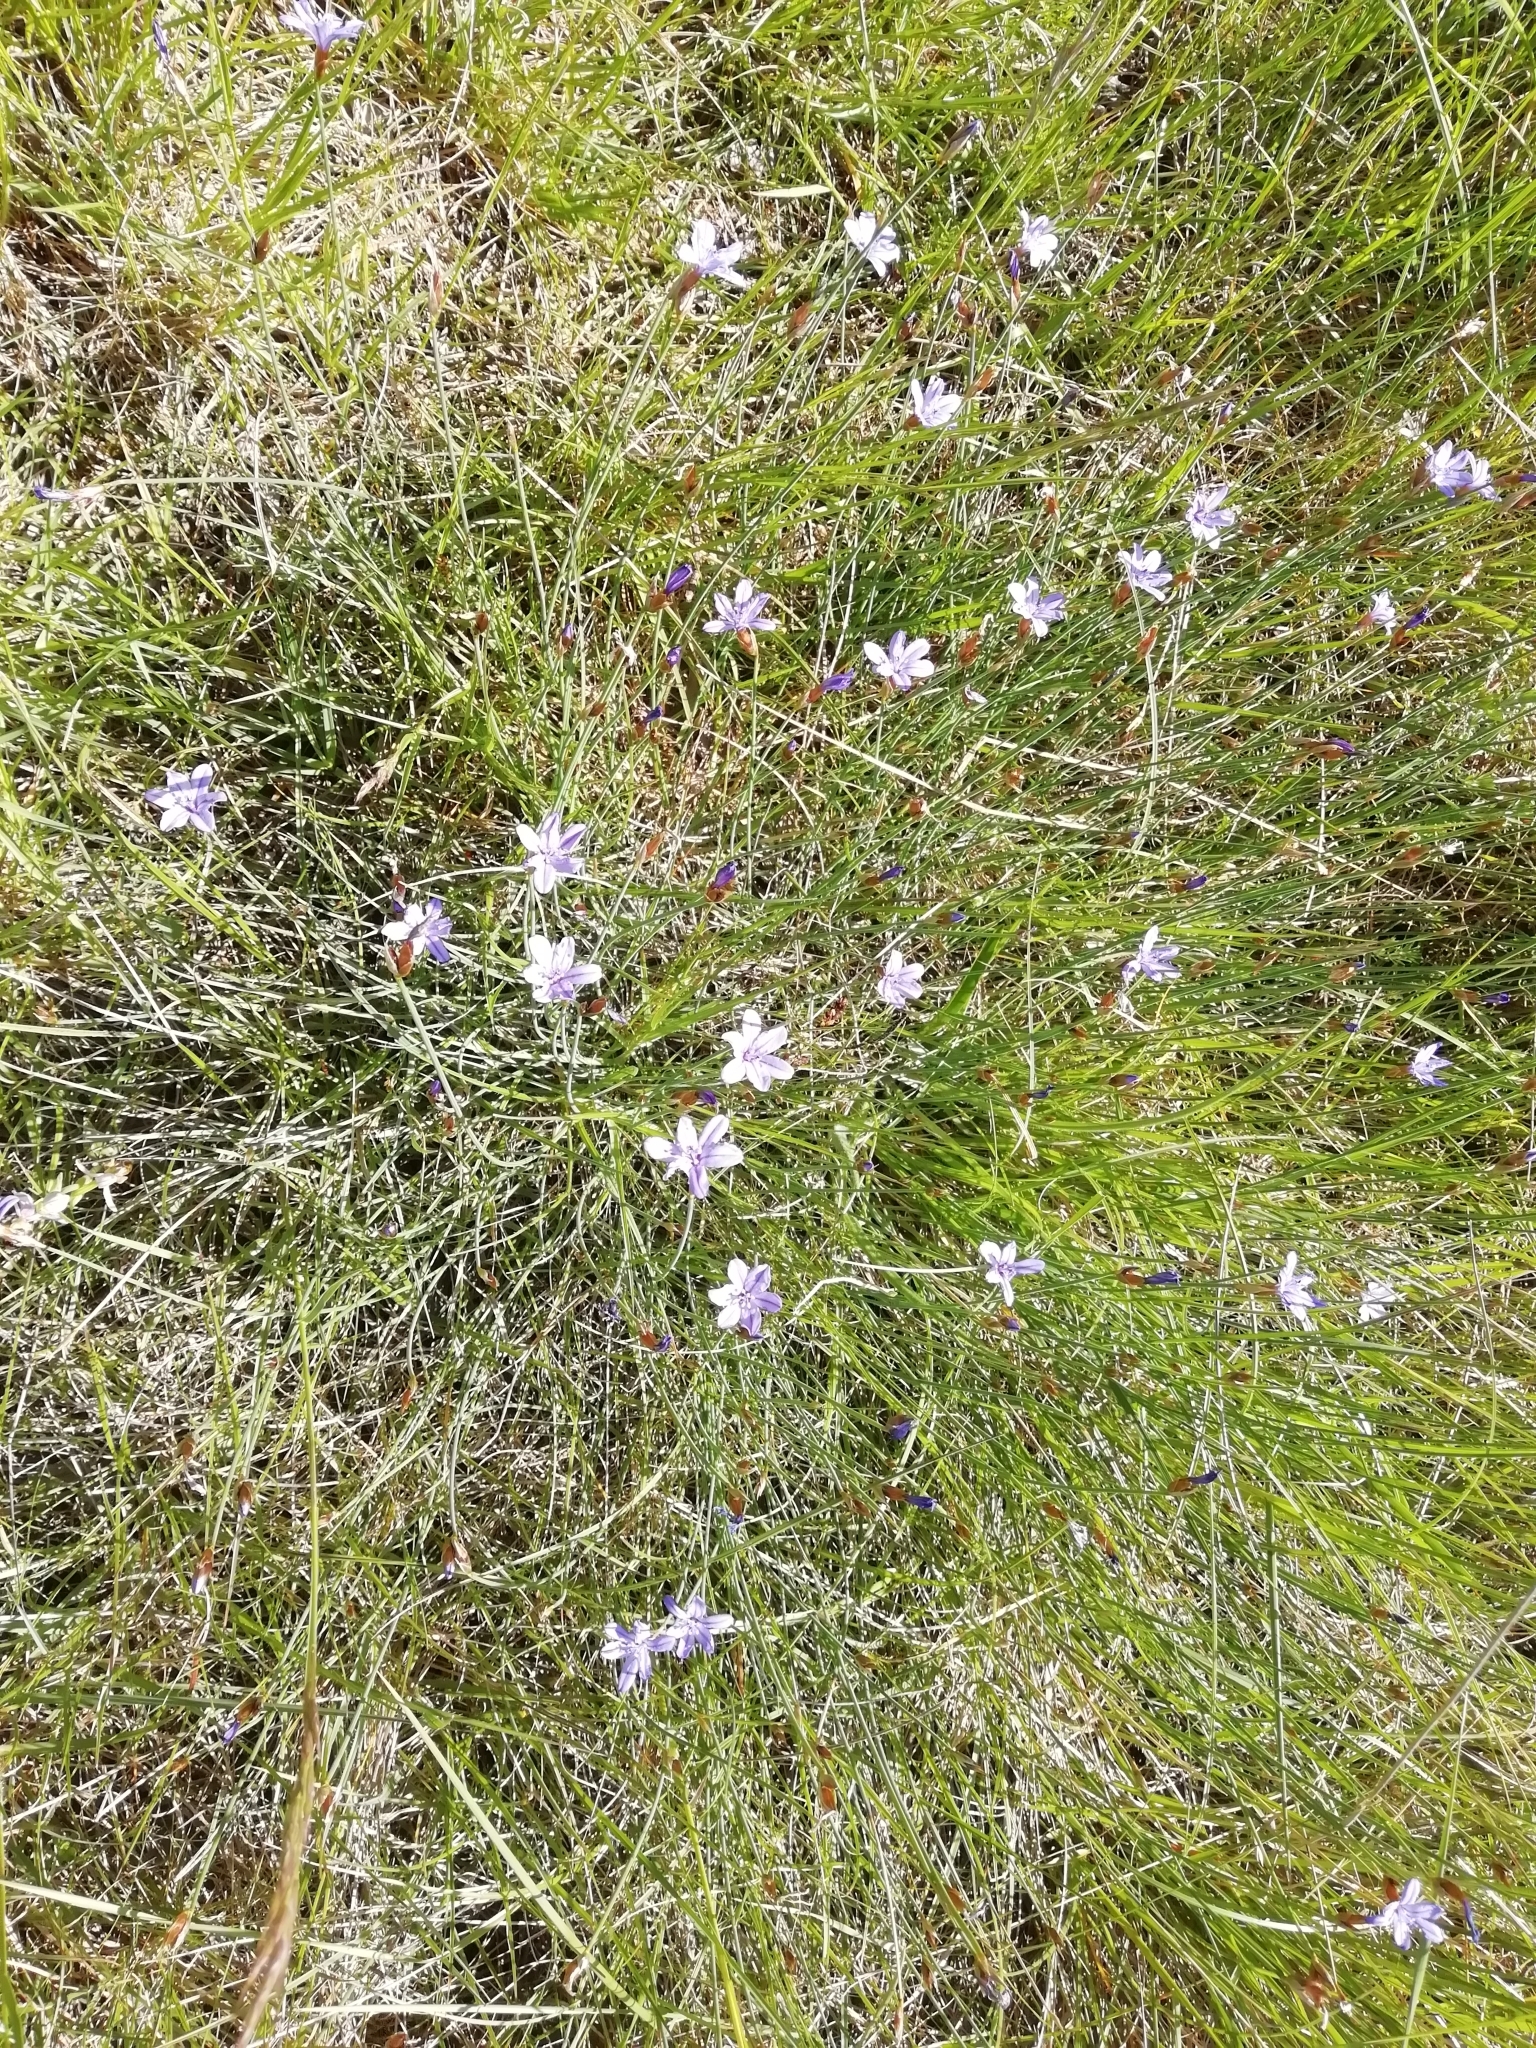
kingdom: Plantae
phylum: Tracheophyta
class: Liliopsida
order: Asparagales
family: Asparagaceae
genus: Aphyllanthes
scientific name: Aphyllanthes monspeliensis
